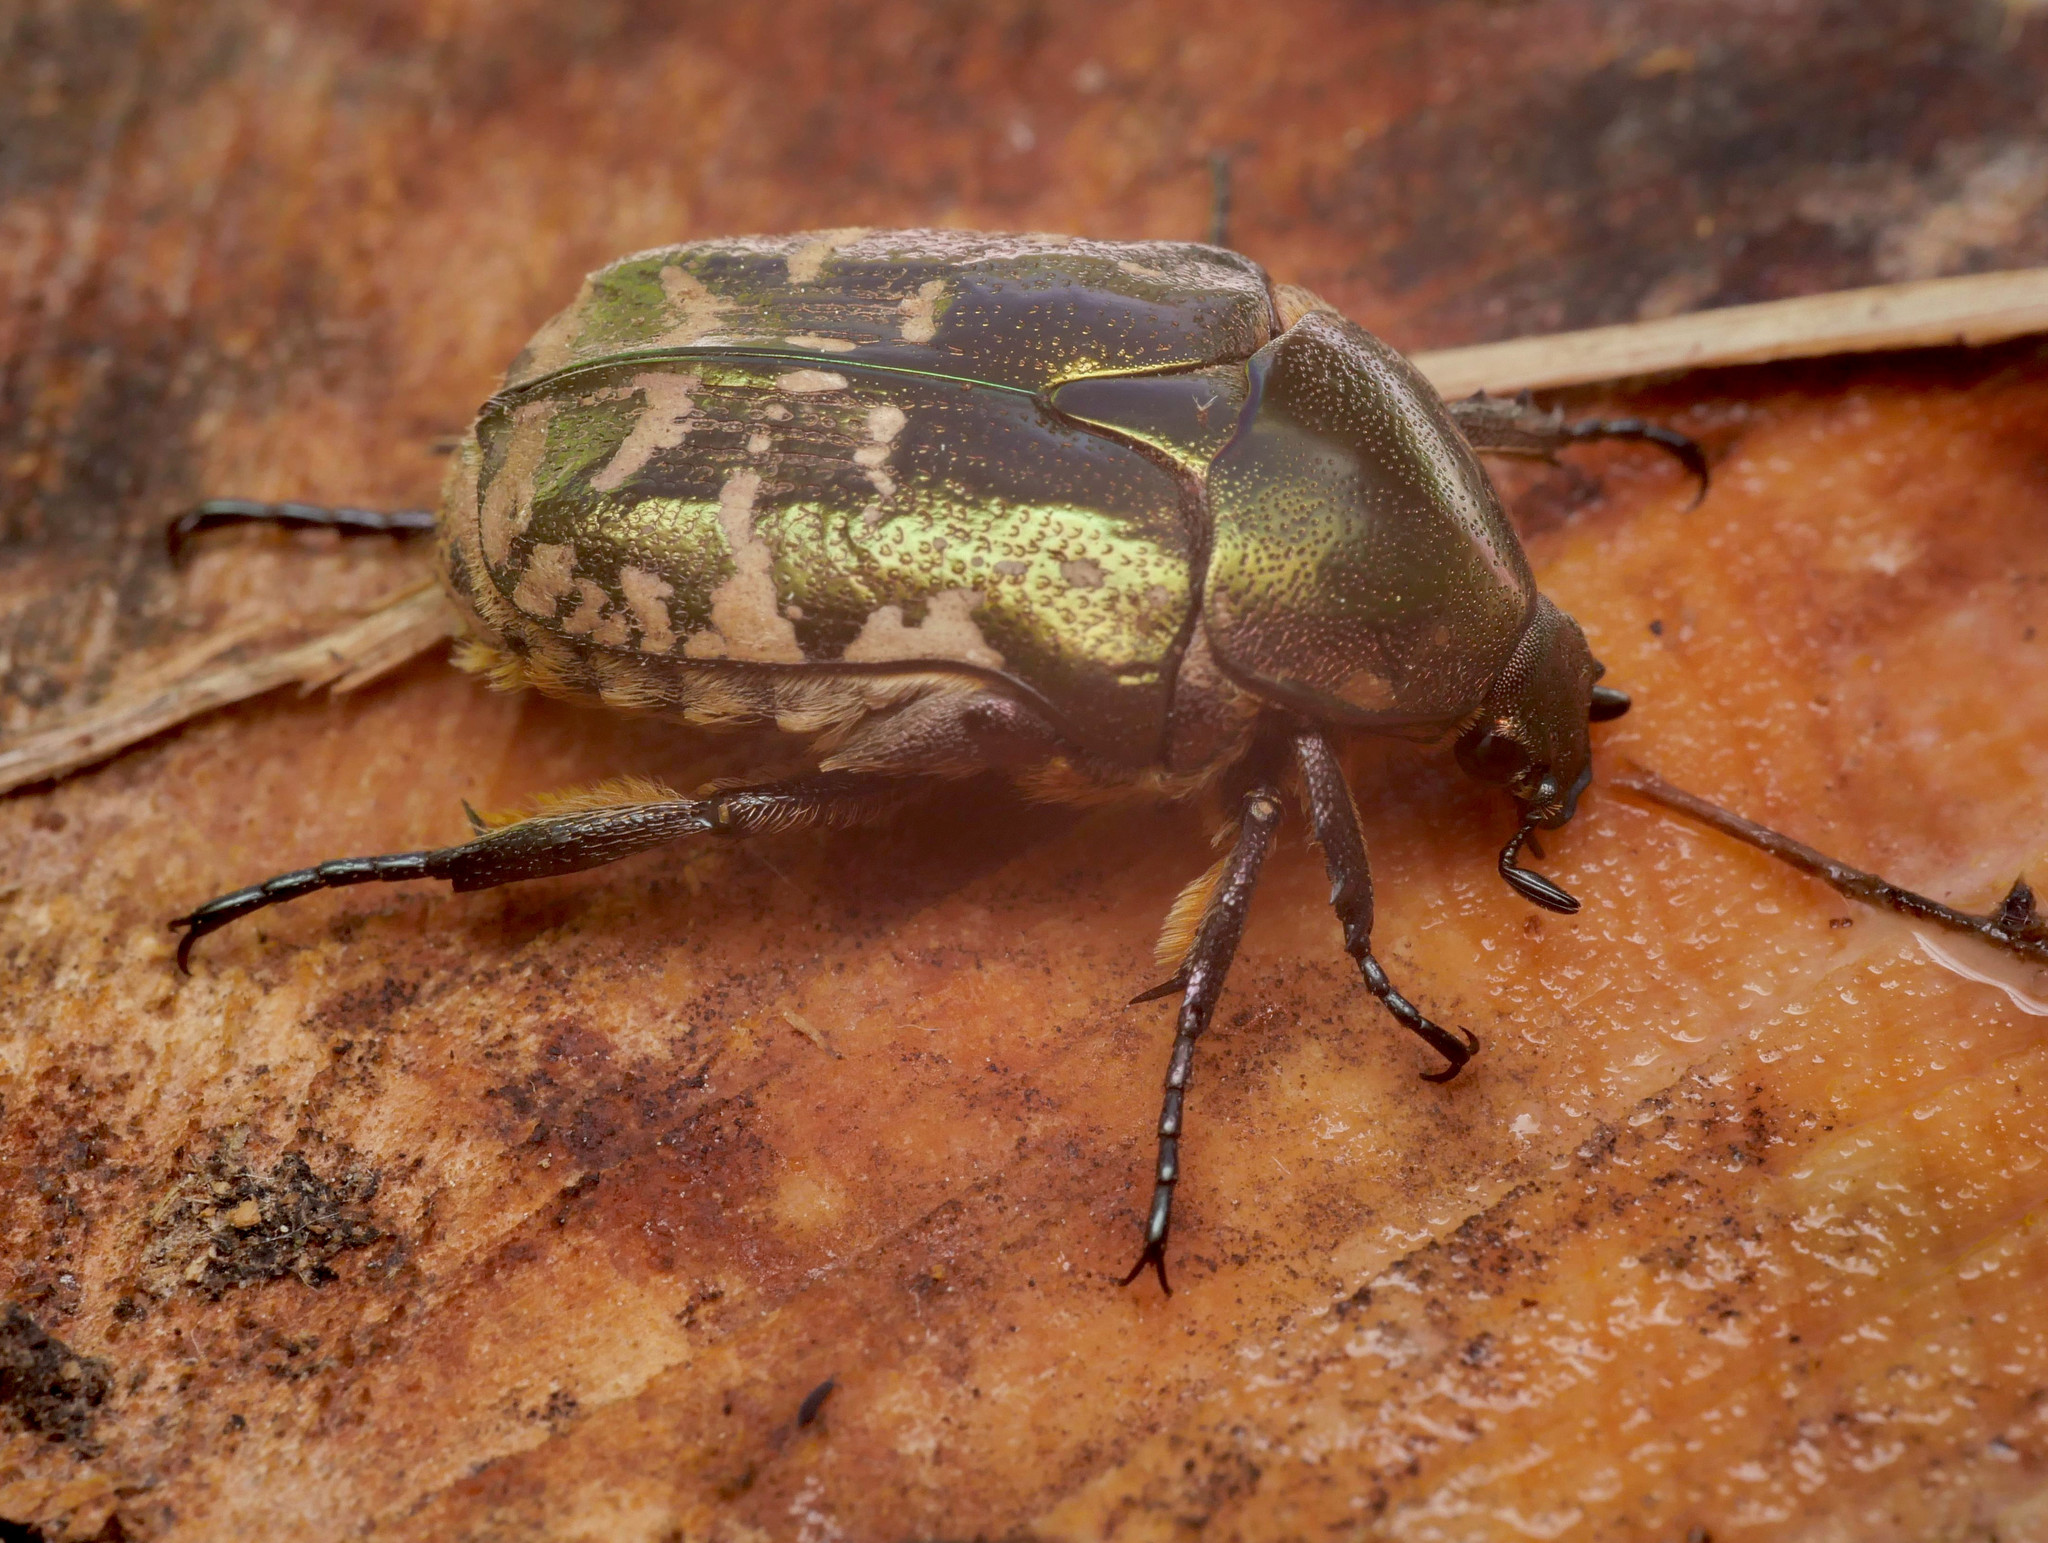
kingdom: Animalia
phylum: Arthropoda
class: Insecta
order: Coleoptera
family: Scarabaeidae
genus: Protaetia
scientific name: Protaetia cuprea
